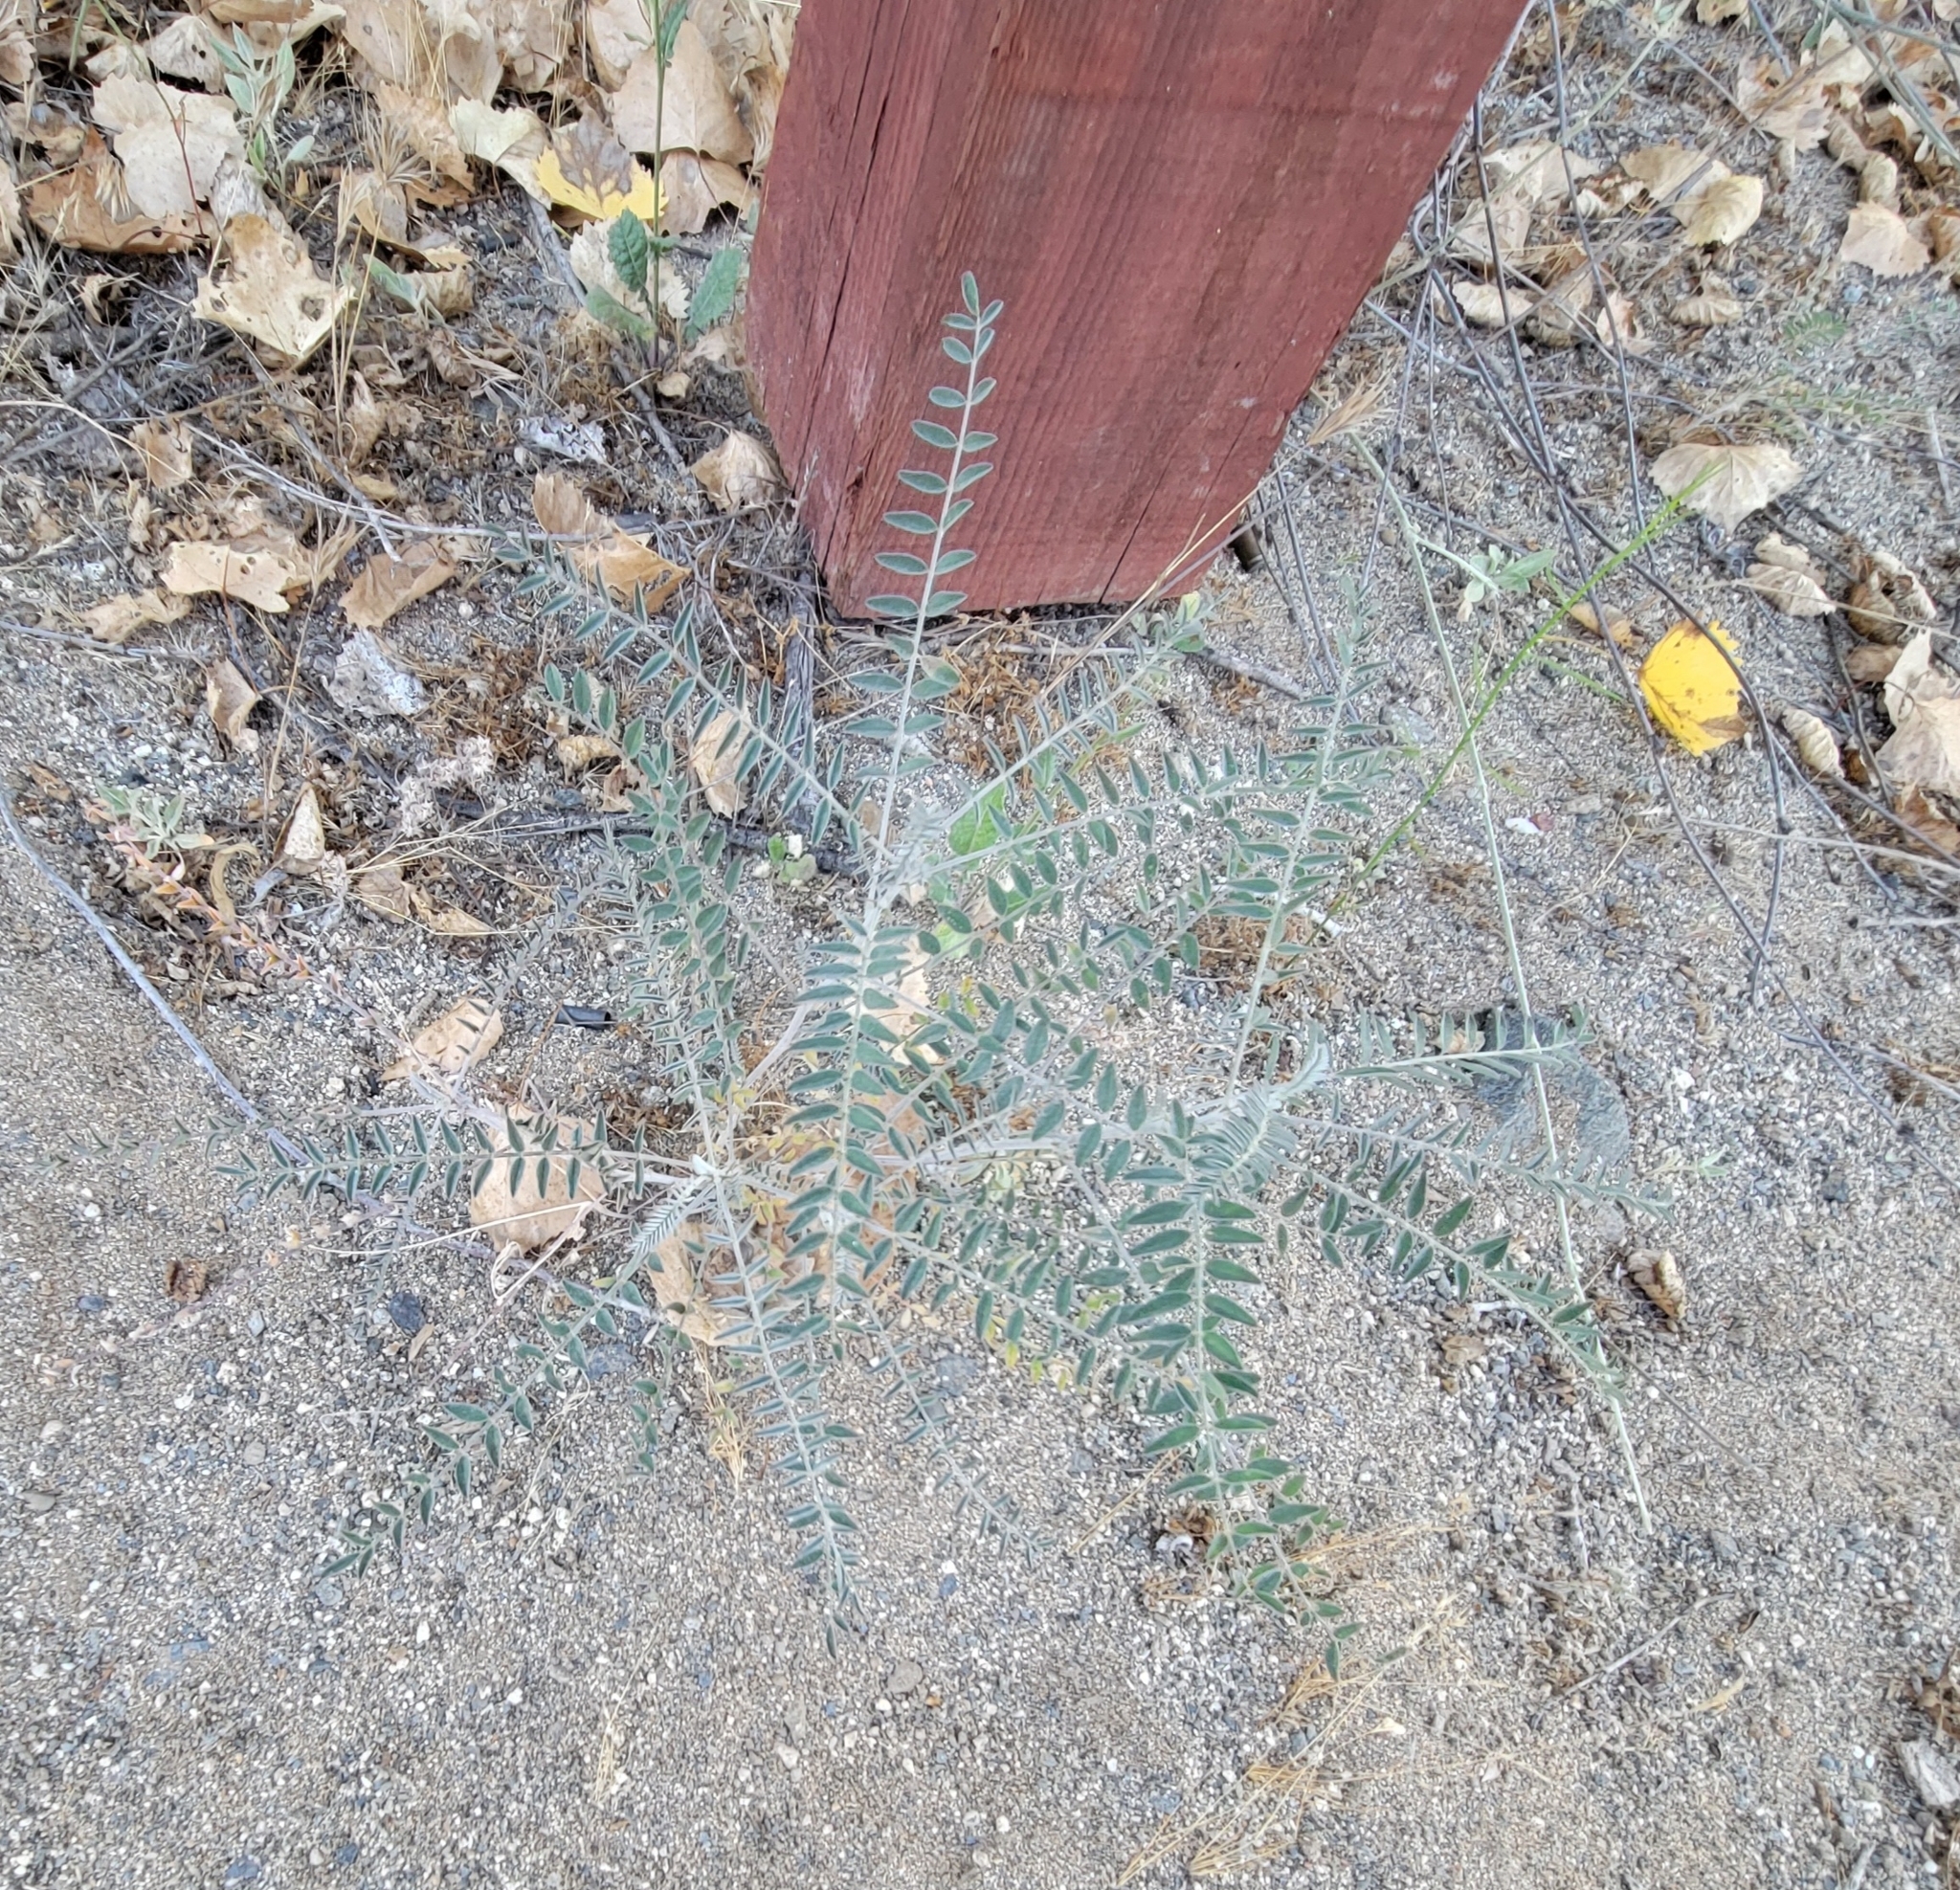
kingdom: Plantae
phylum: Tracheophyta
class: Magnoliopsida
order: Fabales
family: Fabaceae
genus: Astragalus
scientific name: Astragalus trichopodus
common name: Santa barbara milk-vetch
